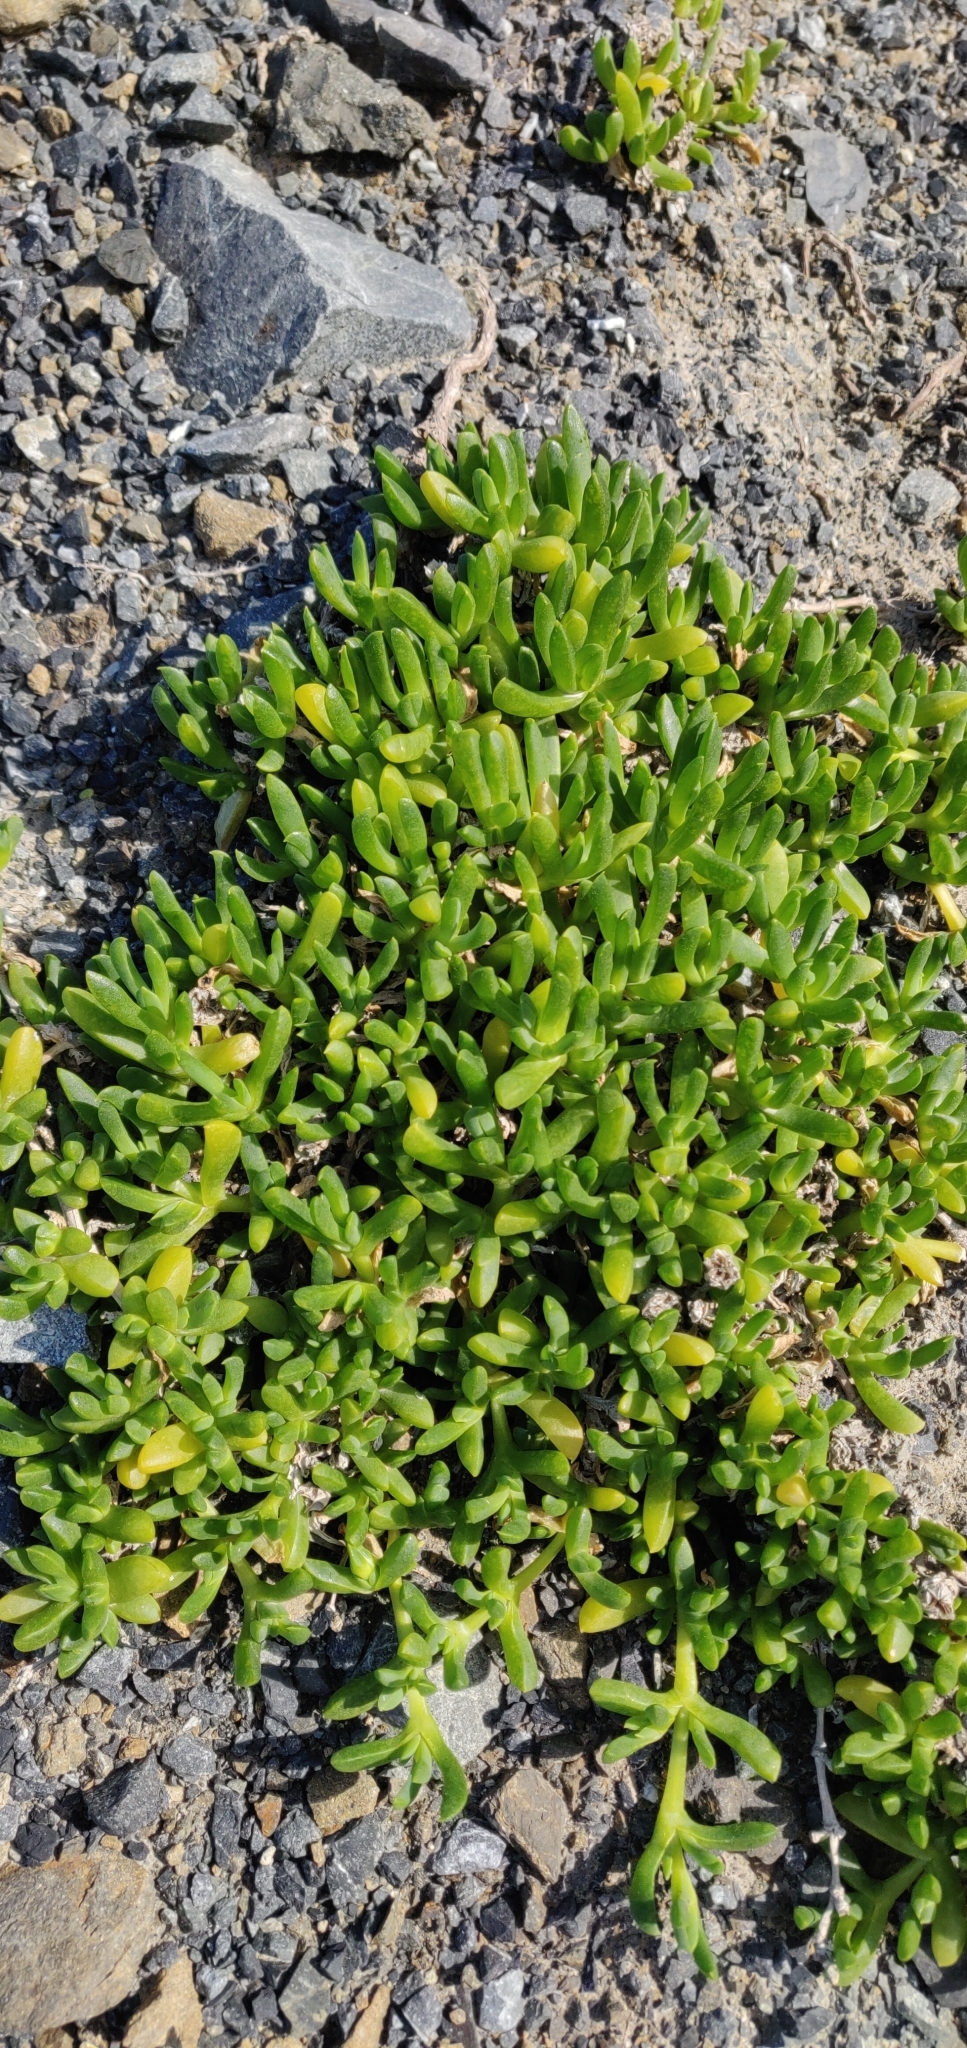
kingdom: Plantae
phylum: Tracheophyta
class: Magnoliopsida
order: Caryophyllales
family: Aizoaceae
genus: Disphyma
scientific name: Disphyma australe
